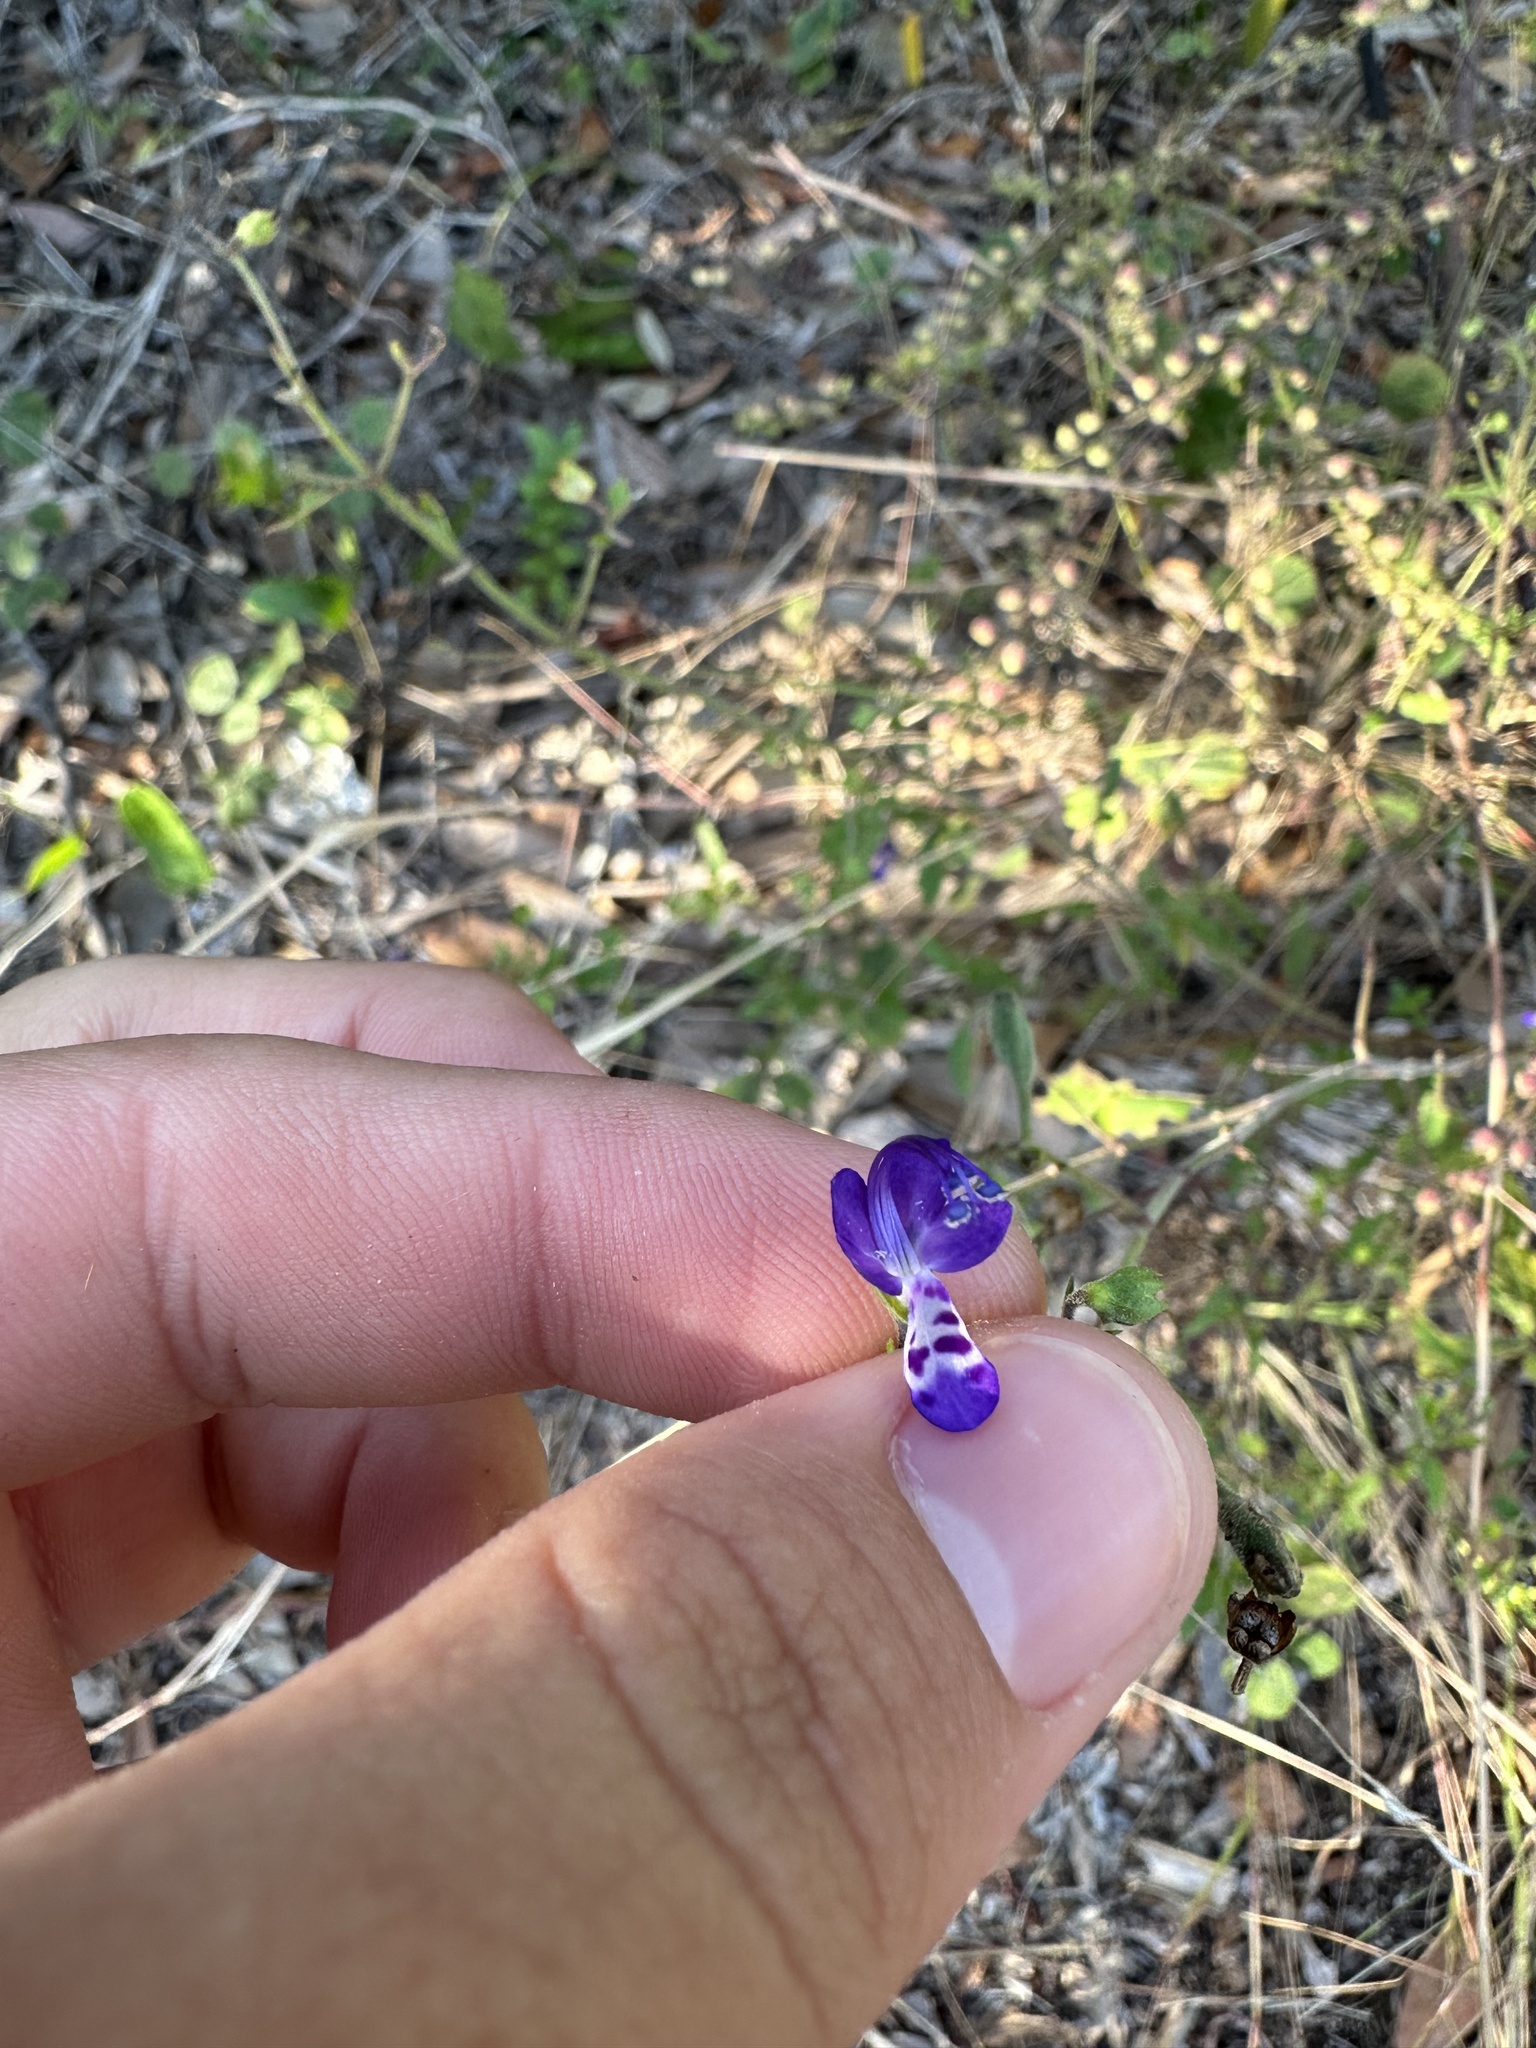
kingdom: Plantae
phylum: Tracheophyta
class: Magnoliopsida
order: Lamiales
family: Lamiaceae
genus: Trichostema
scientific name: Trichostema fruticosum
